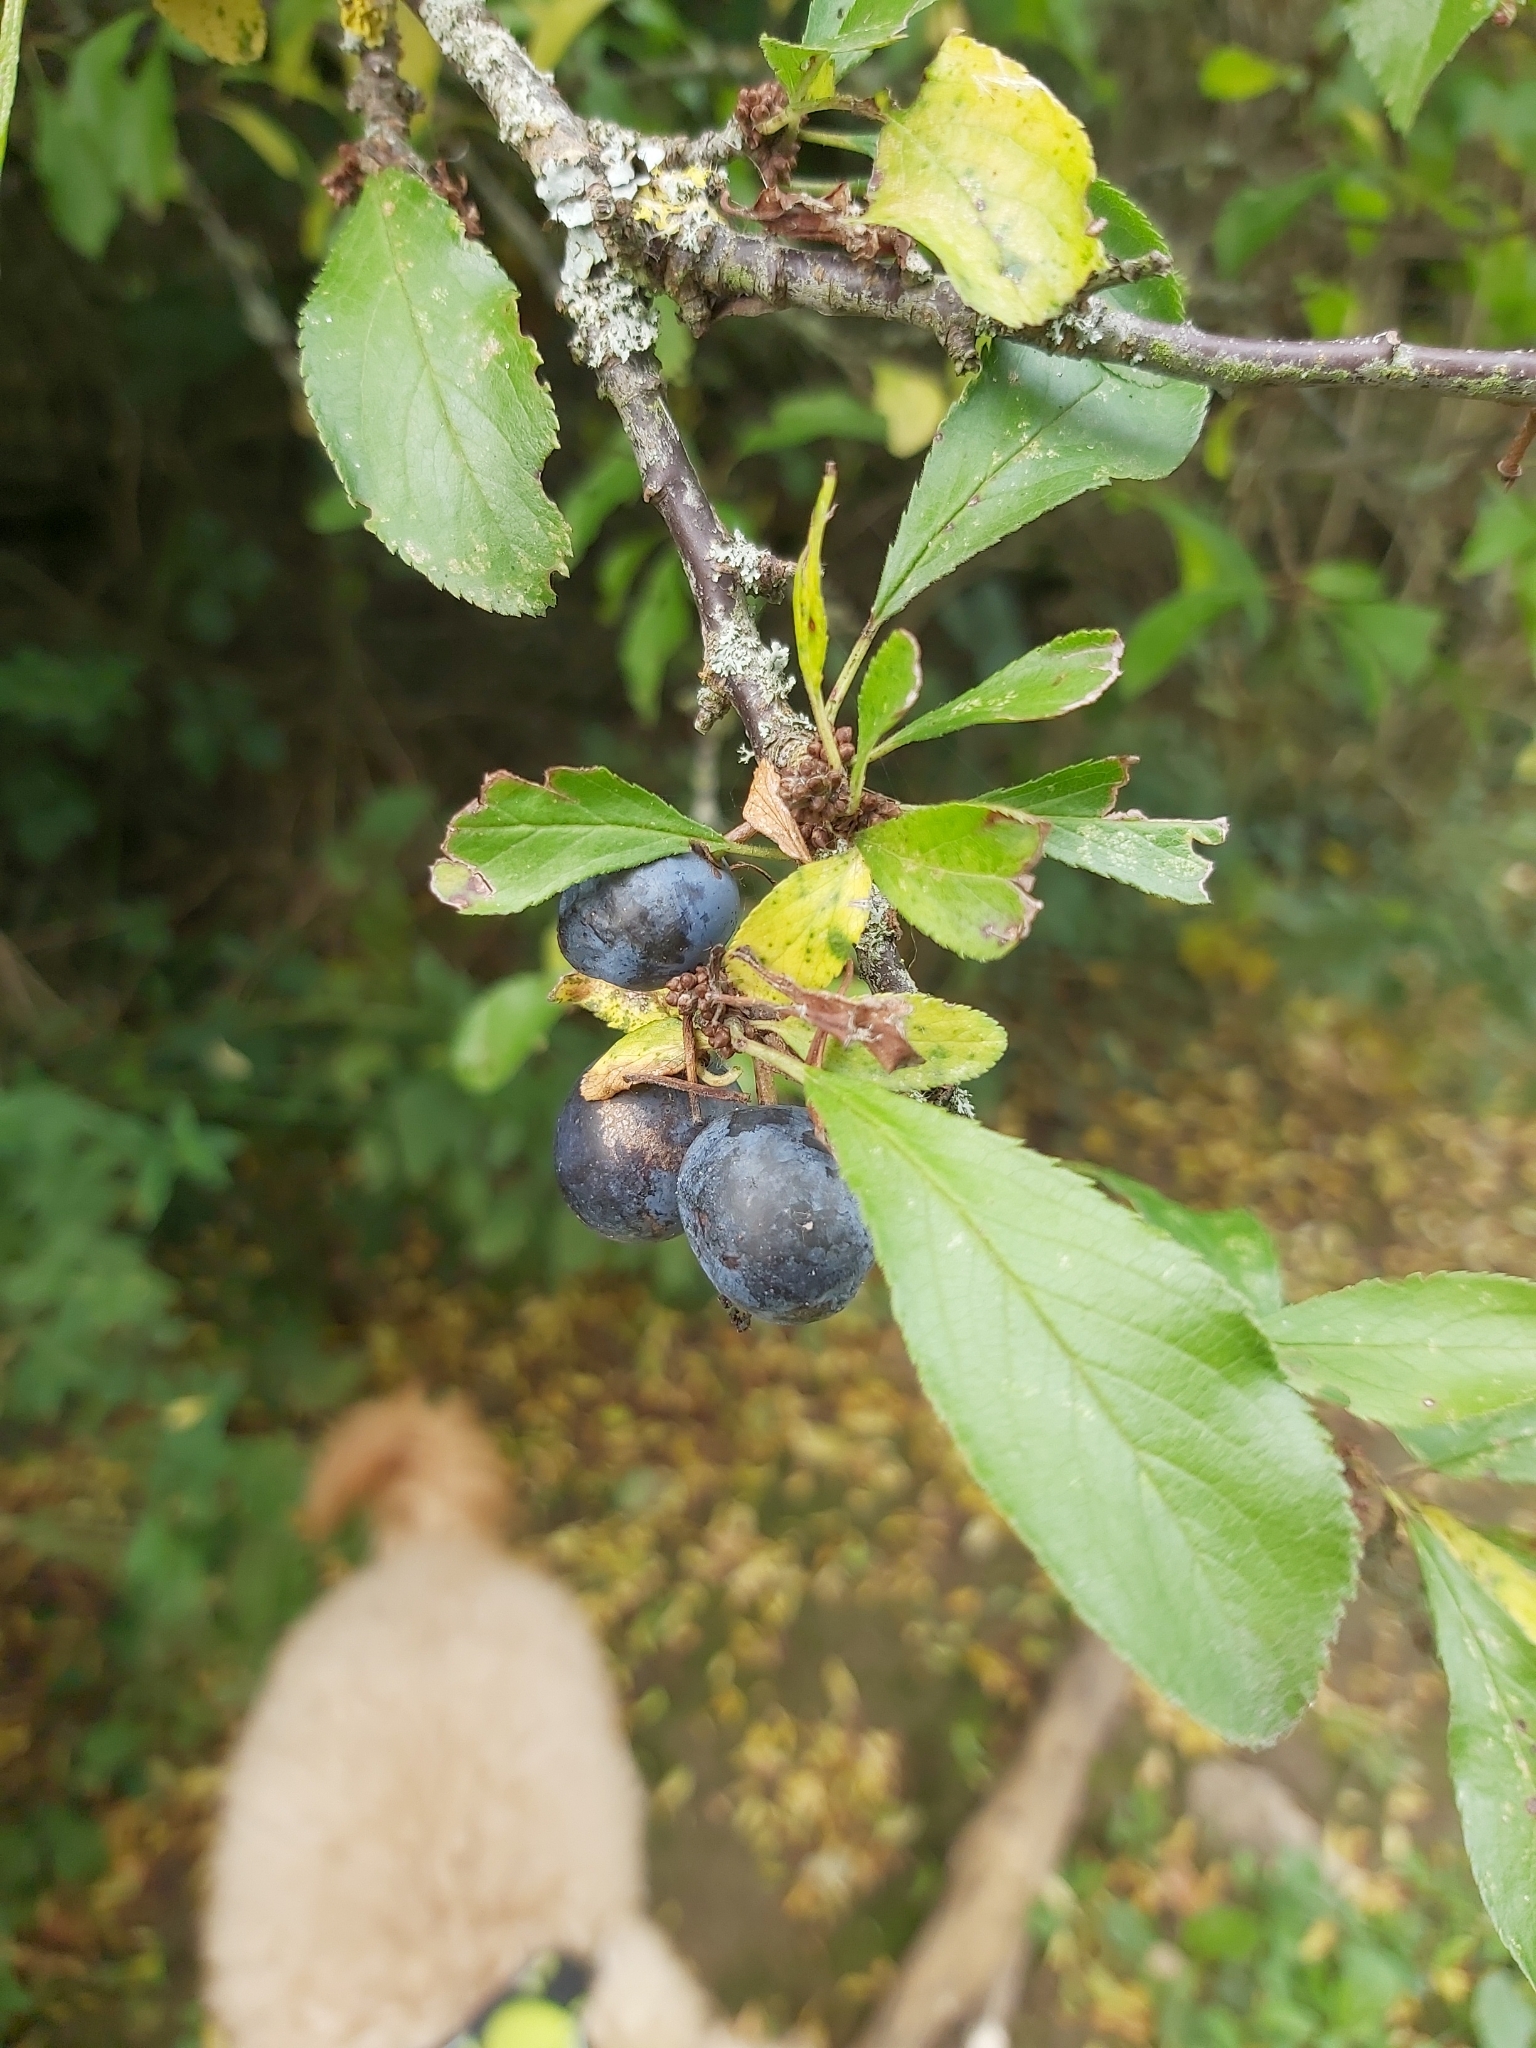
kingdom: Plantae
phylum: Tracheophyta
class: Magnoliopsida
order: Rosales
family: Rosaceae
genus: Prunus
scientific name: Prunus spinosa
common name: Blackthorn
